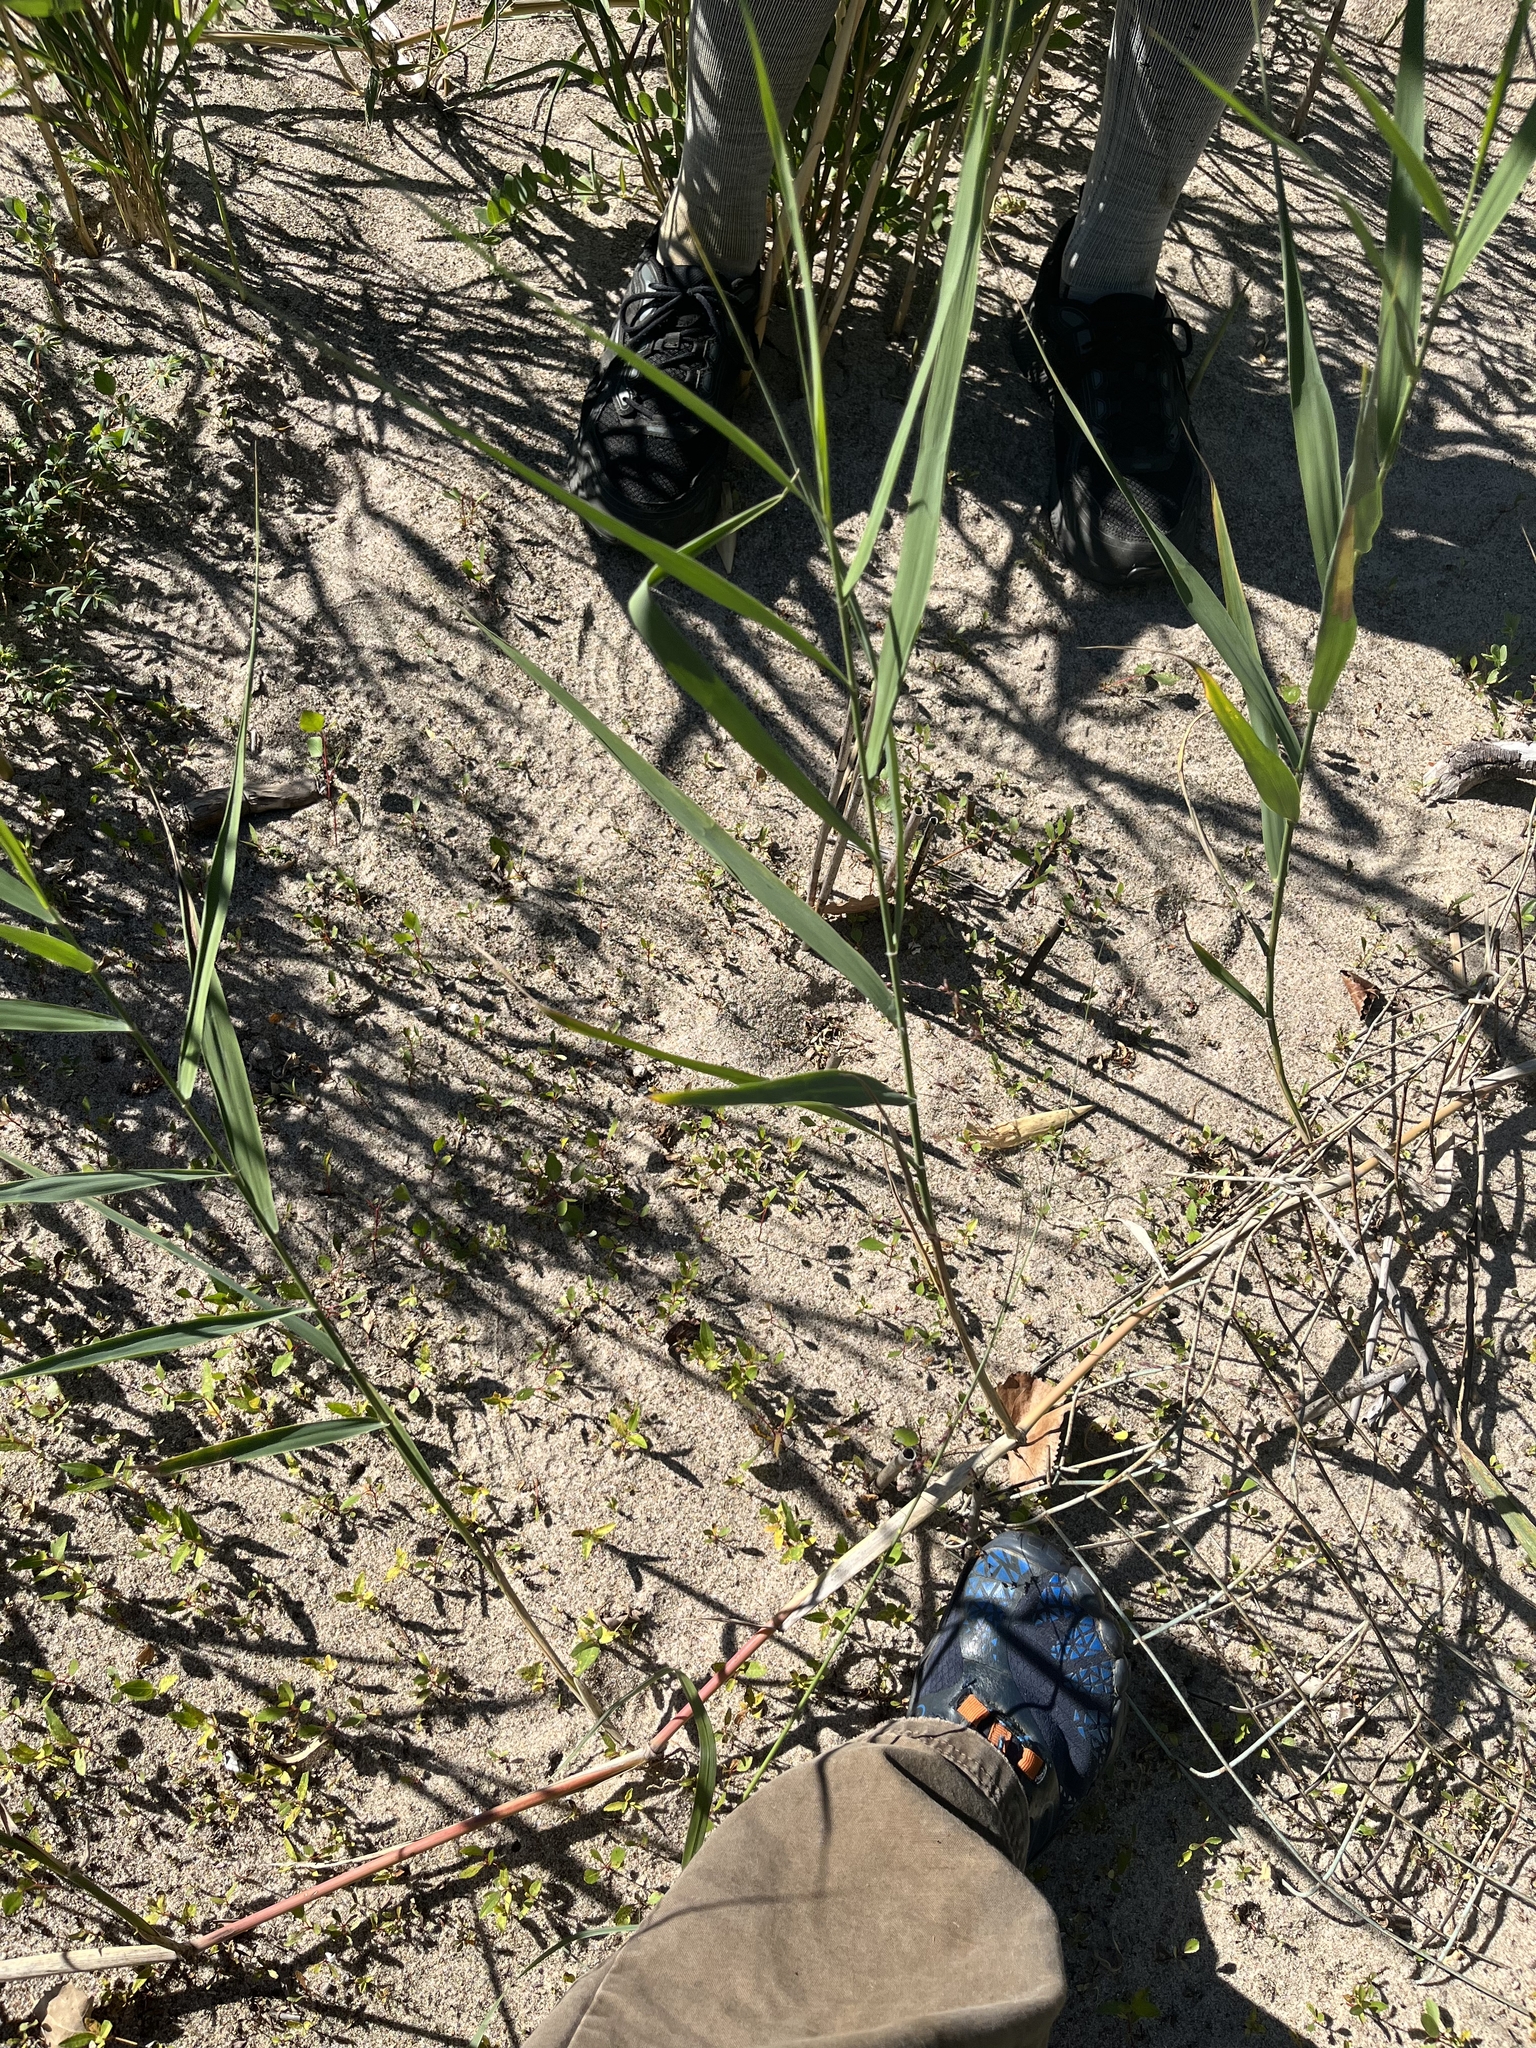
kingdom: Plantae
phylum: Tracheophyta
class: Liliopsida
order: Poales
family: Poaceae
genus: Phragmites
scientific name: Phragmites australis
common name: Common reed
